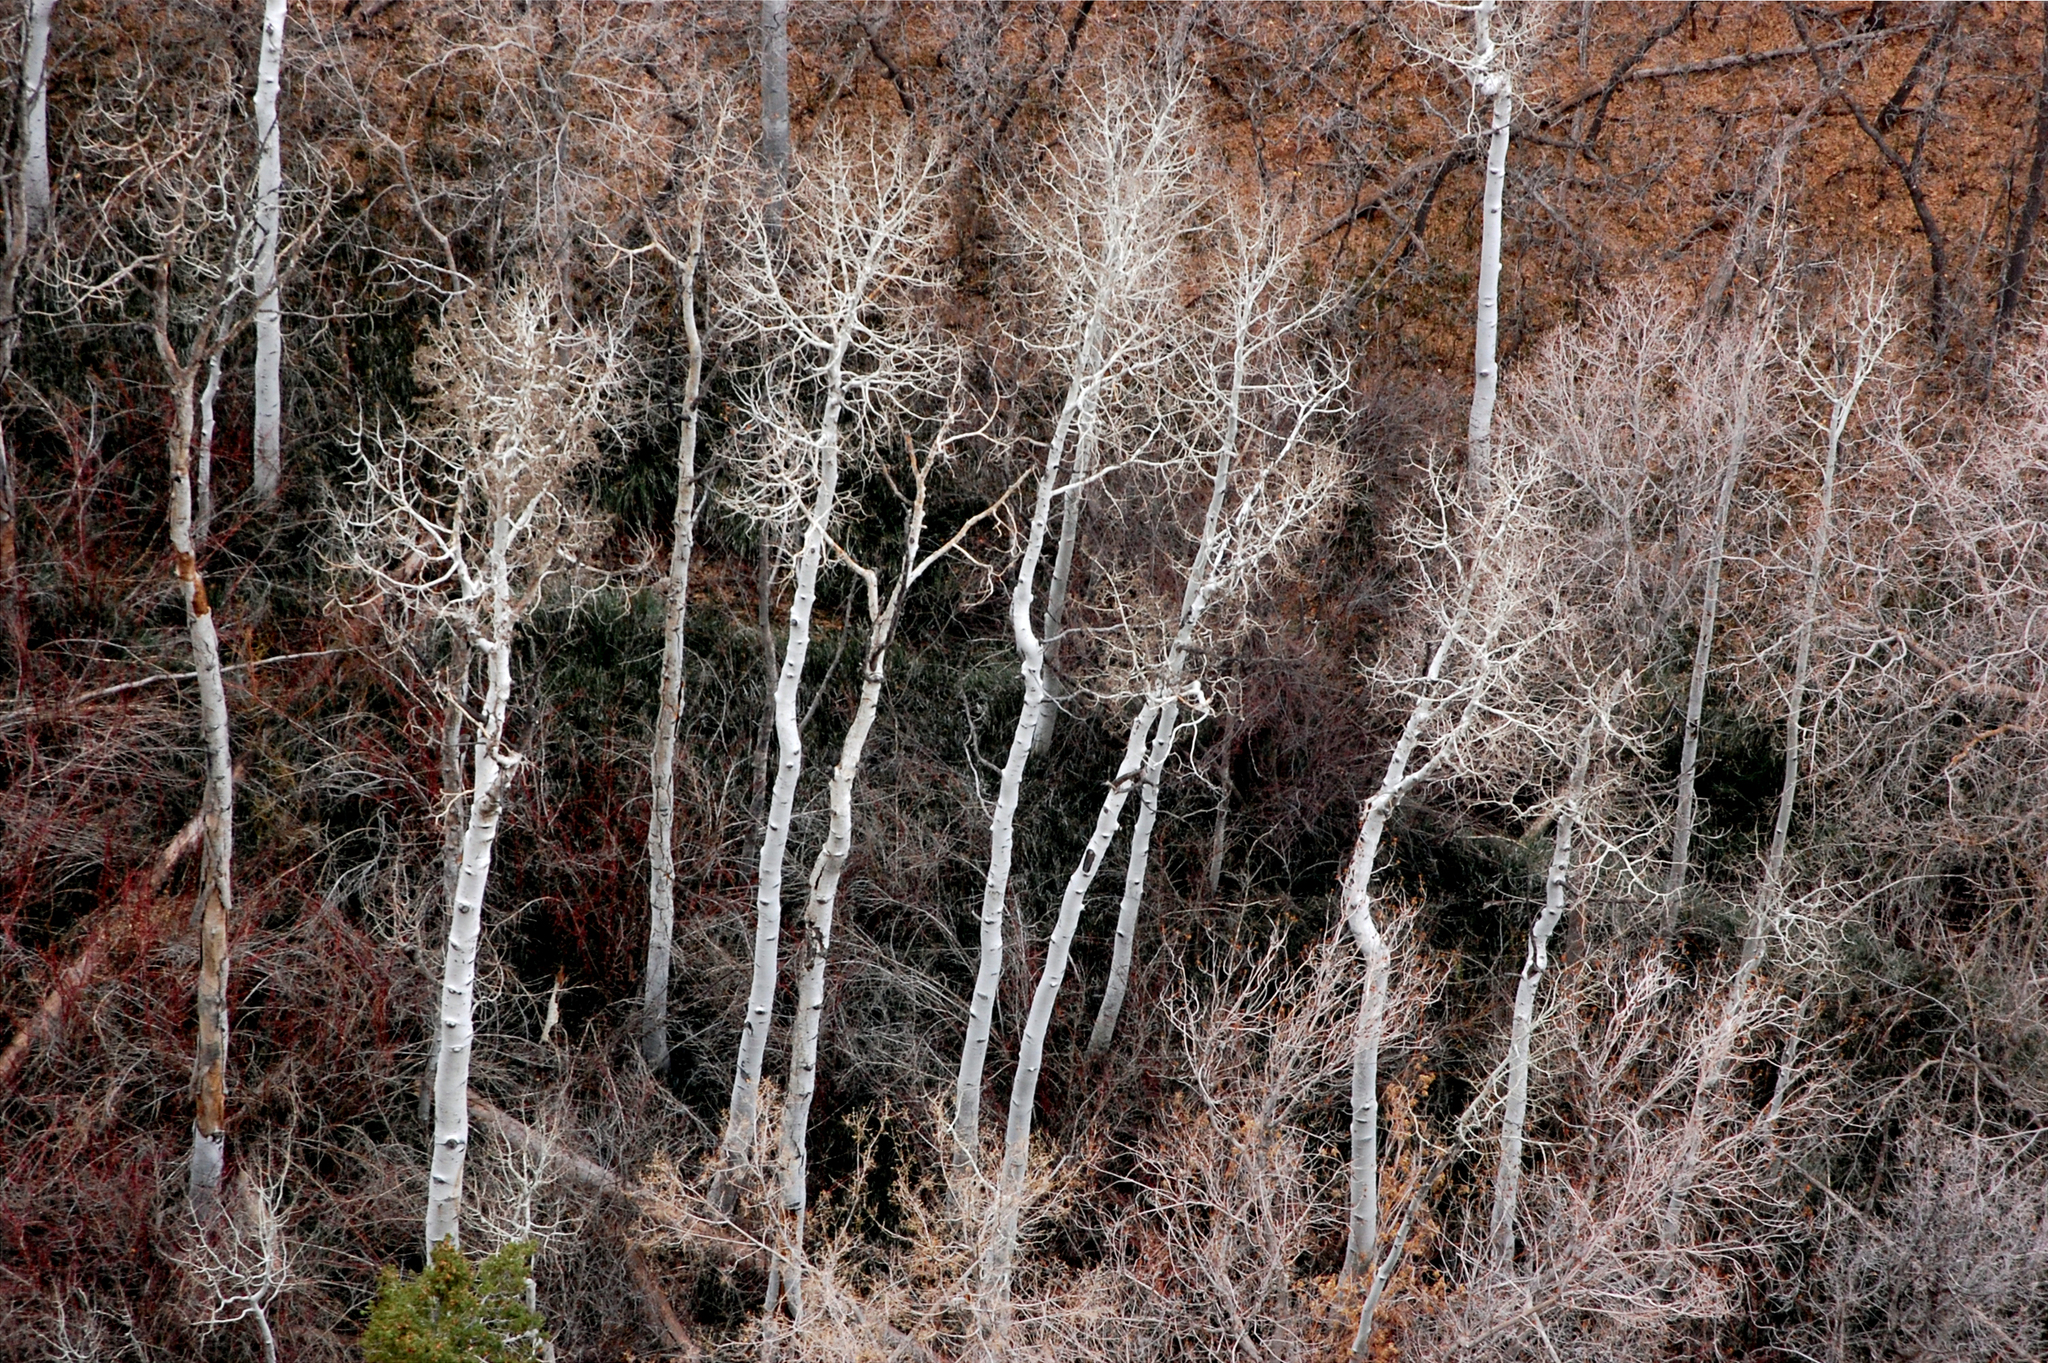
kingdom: Plantae
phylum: Tracheophyta
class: Magnoliopsida
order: Malpighiales
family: Salicaceae
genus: Populus
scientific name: Populus tremuloides
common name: Quaking aspen
